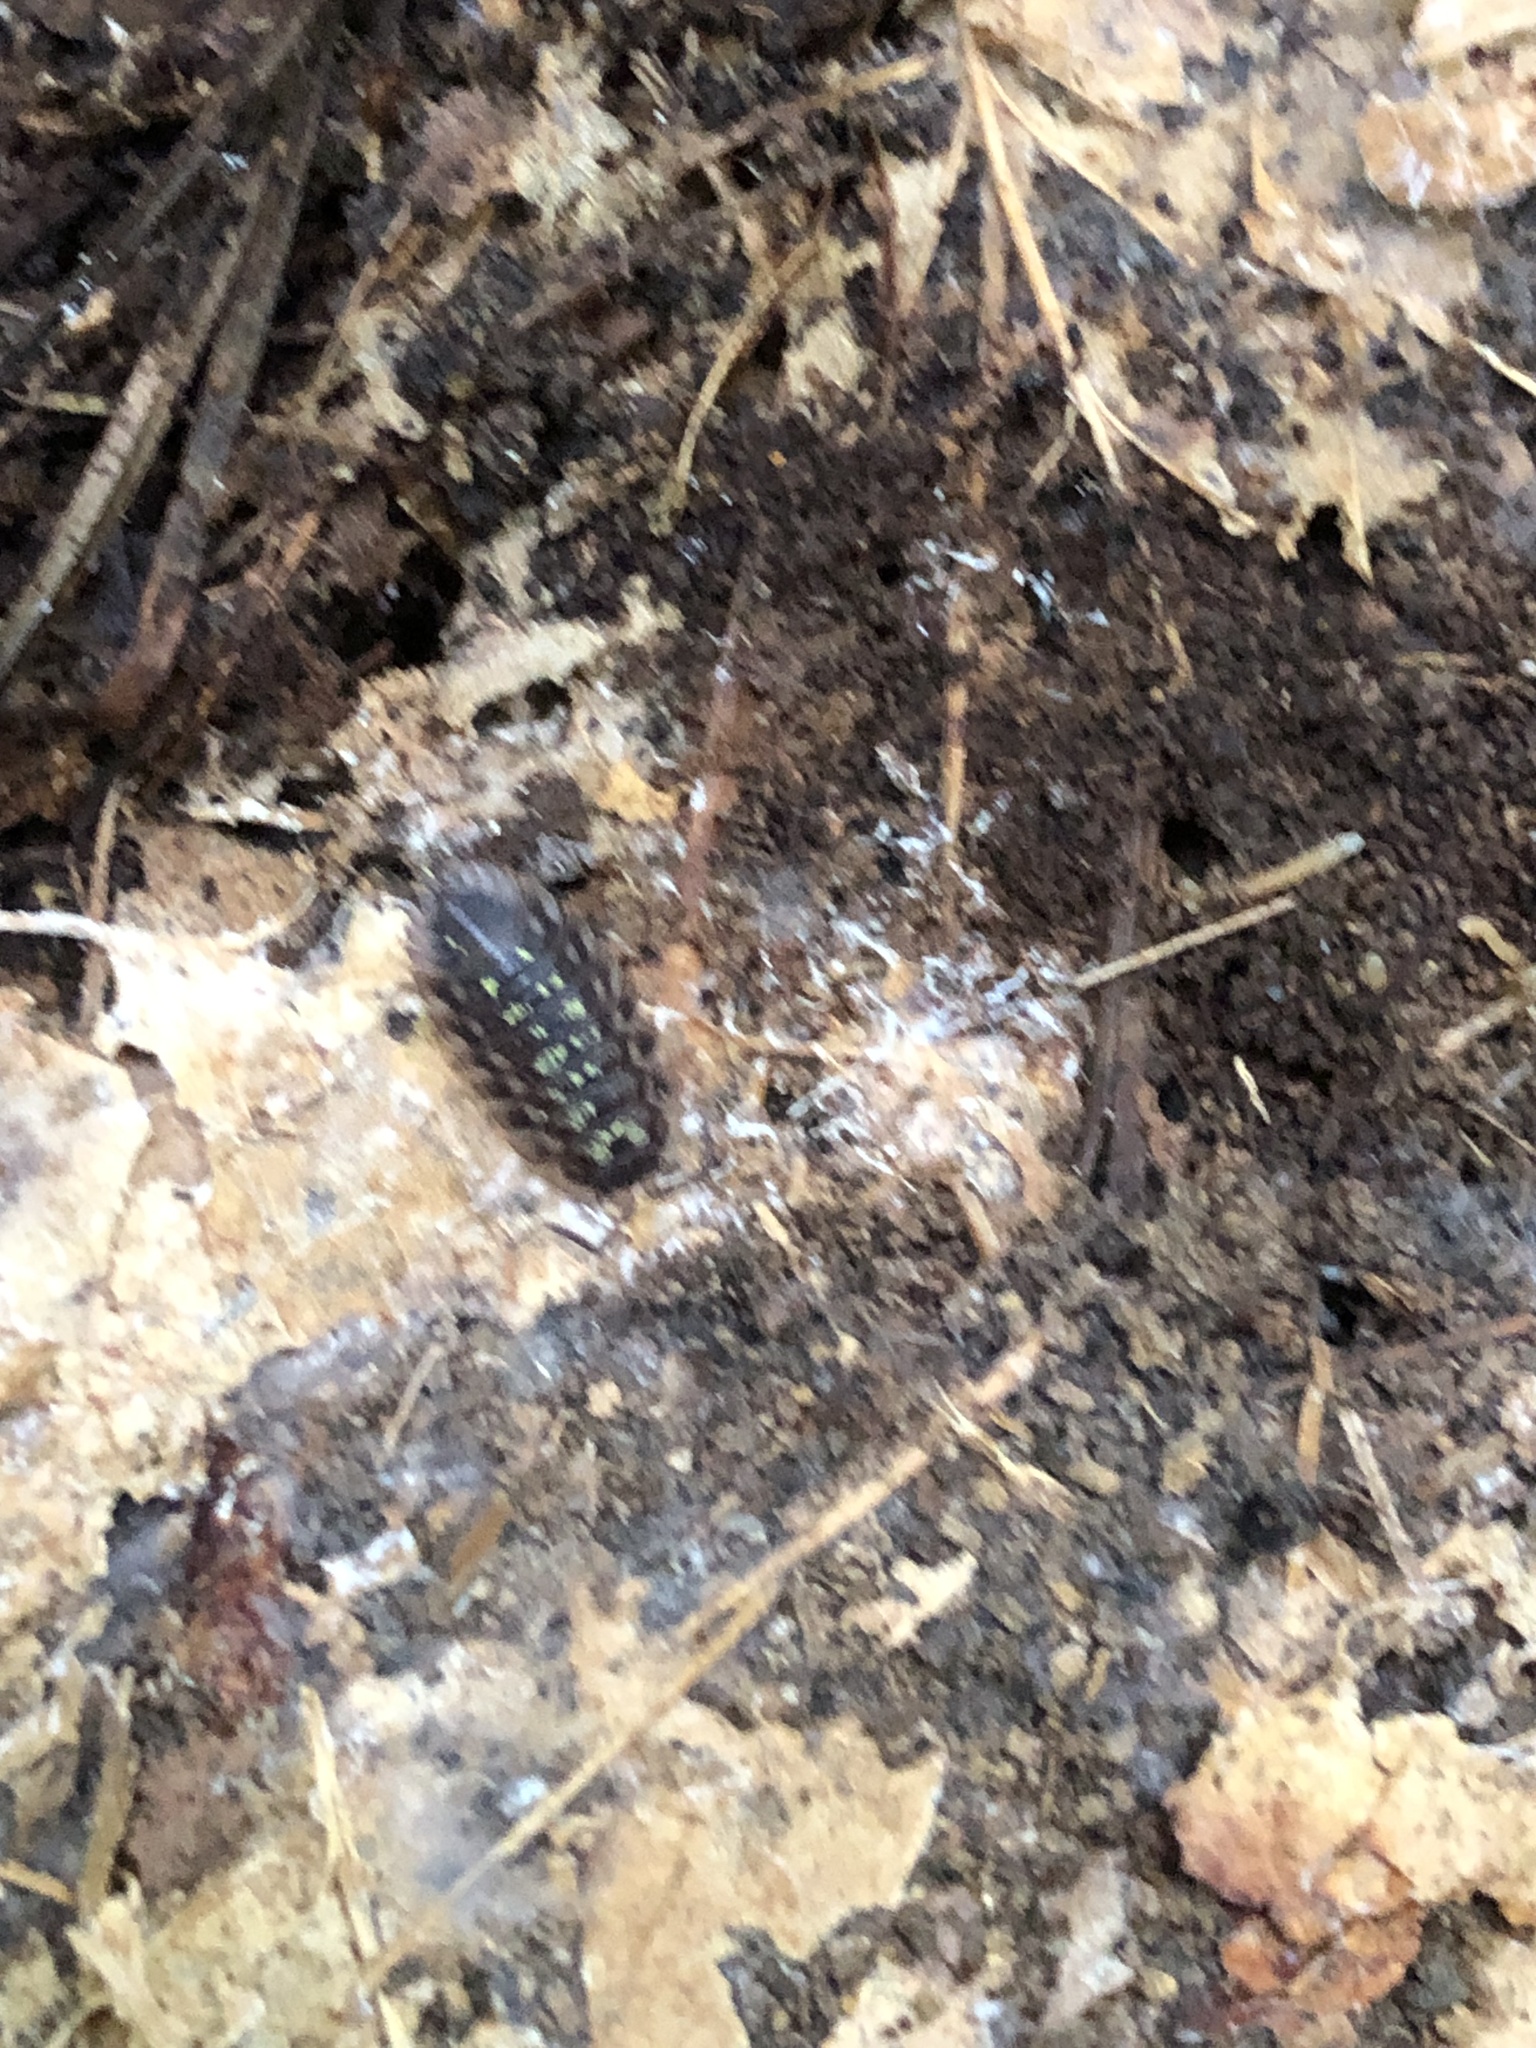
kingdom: Animalia
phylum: Arthropoda
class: Malacostraca
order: Isopoda
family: Oniscidae
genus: Oniscus
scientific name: Oniscus asellus
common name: Common shiny woodlouse
